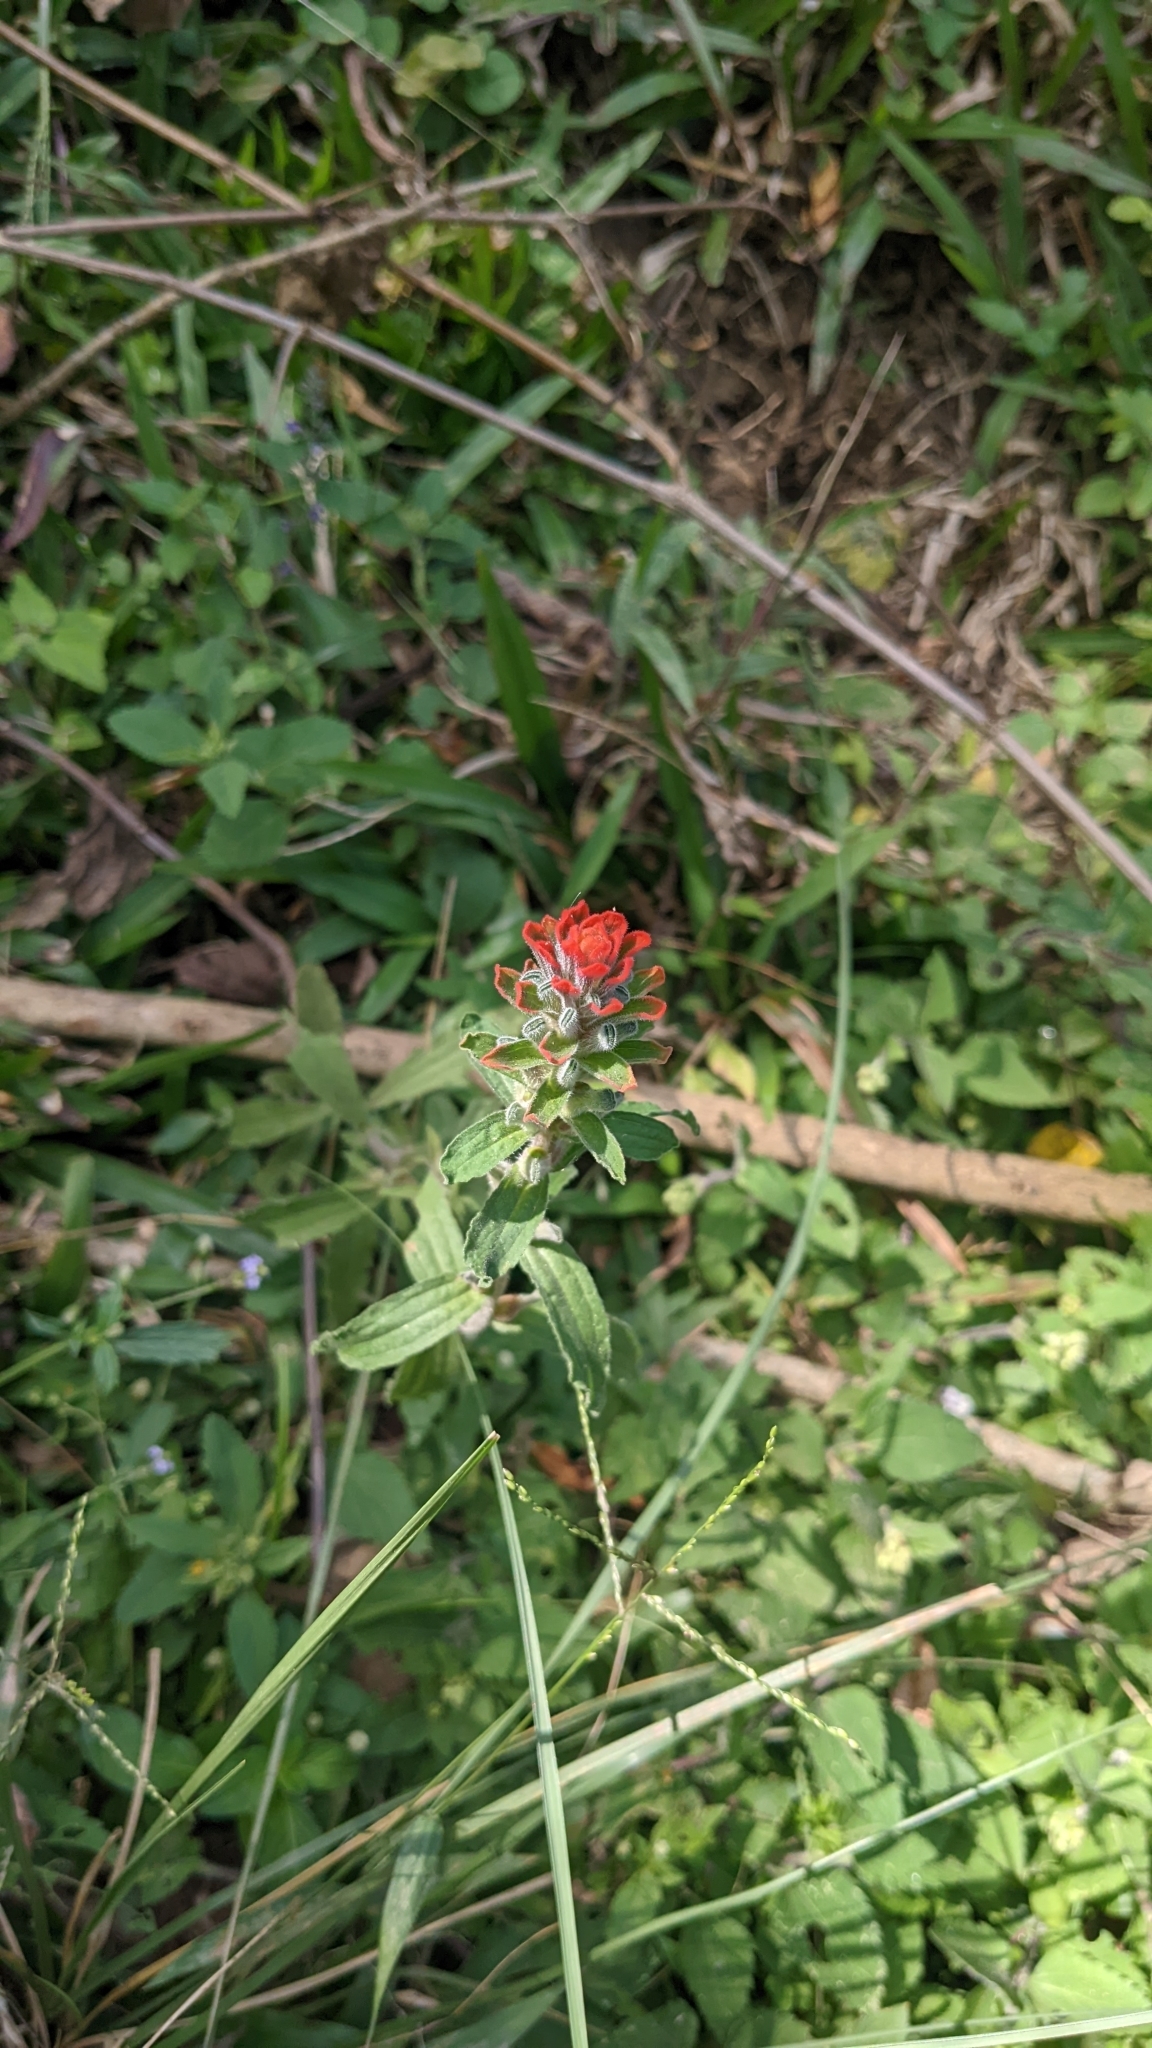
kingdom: Plantae
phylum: Tracheophyta
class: Magnoliopsida
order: Lamiales
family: Orobanchaceae
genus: Castilleja
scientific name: Castilleja arvensis
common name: Indian paintbrush
